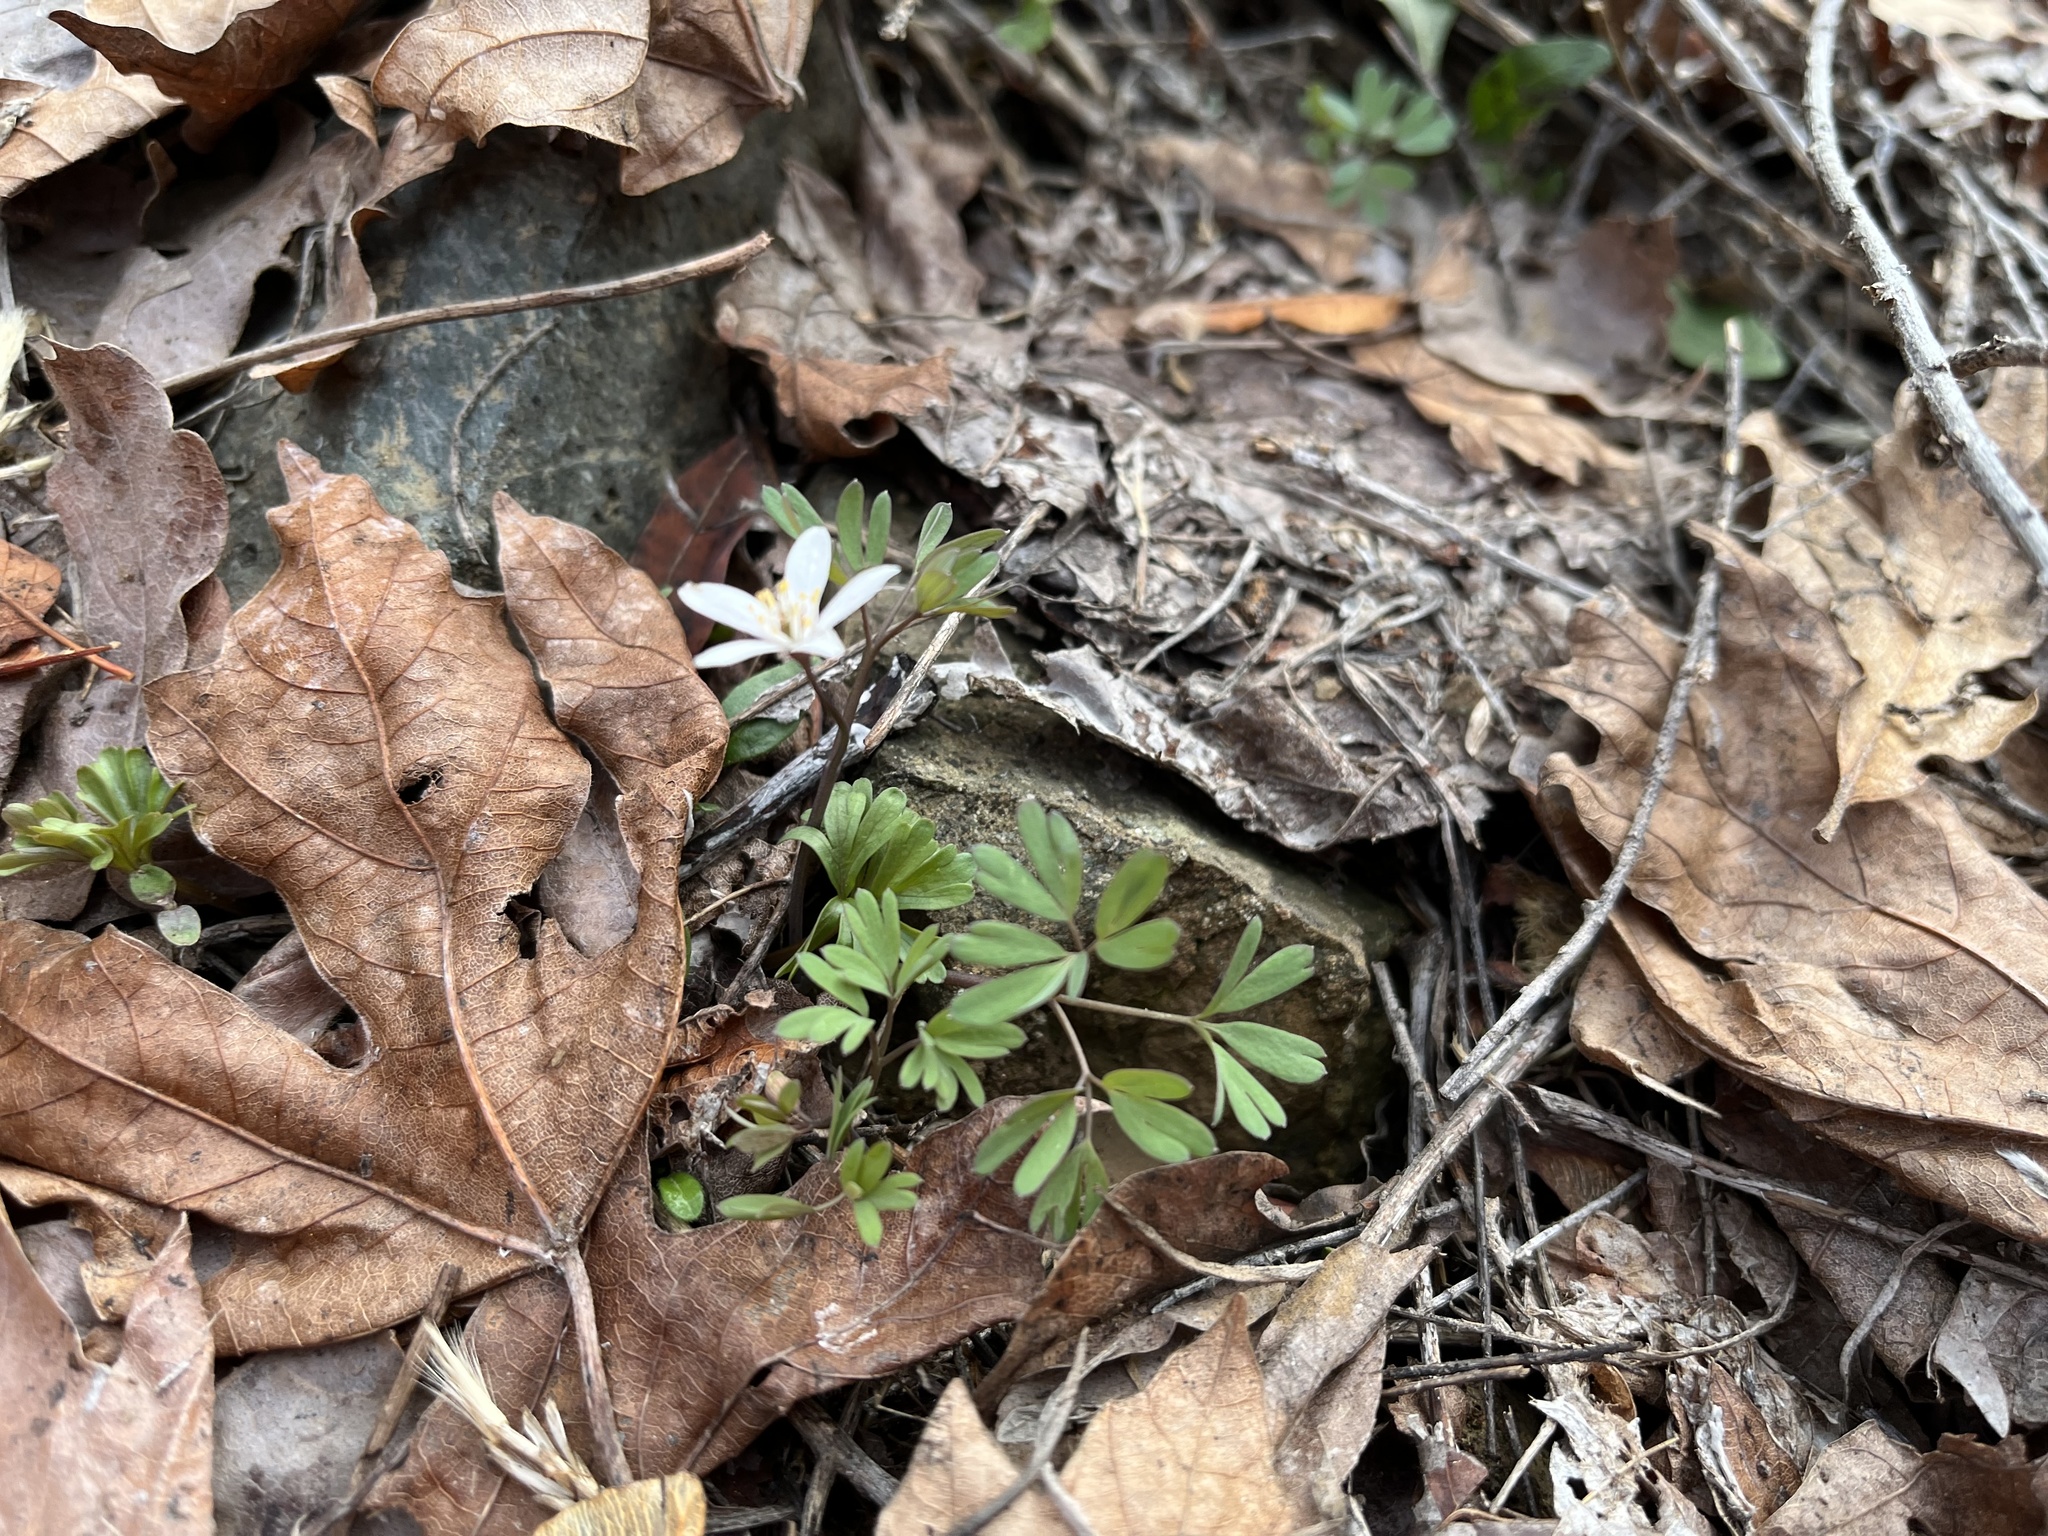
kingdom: Plantae
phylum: Tracheophyta
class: Magnoliopsida
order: Ranunculales
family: Ranunculaceae
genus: Enemion
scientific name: Enemion stipitatum
